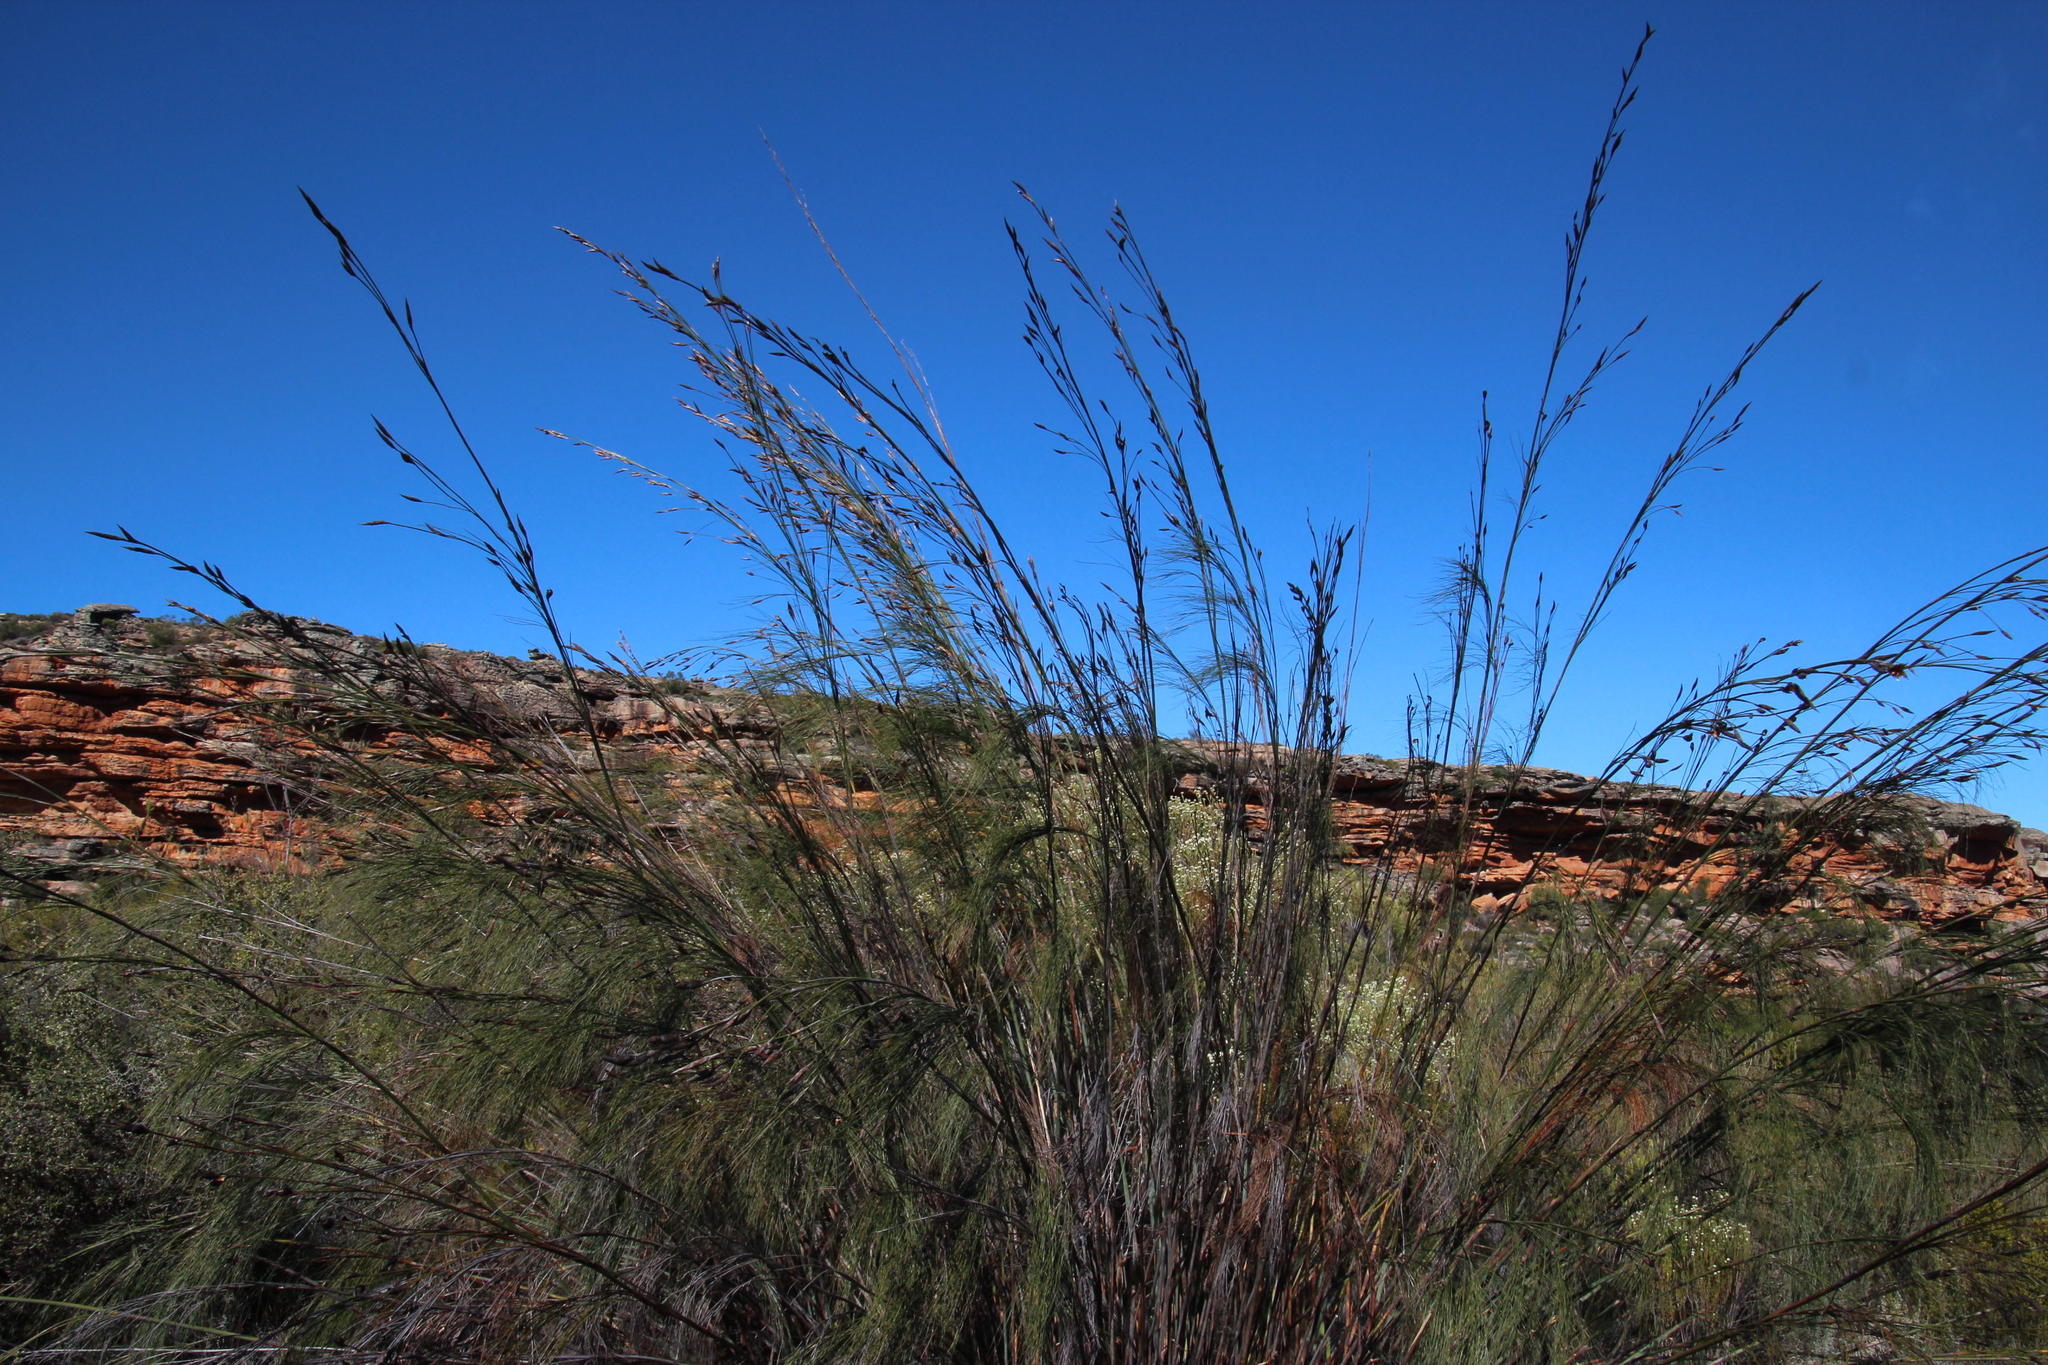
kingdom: Plantae
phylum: Tracheophyta
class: Liliopsida
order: Poales
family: Restionaceae
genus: Cannomois
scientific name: Cannomois robusta
